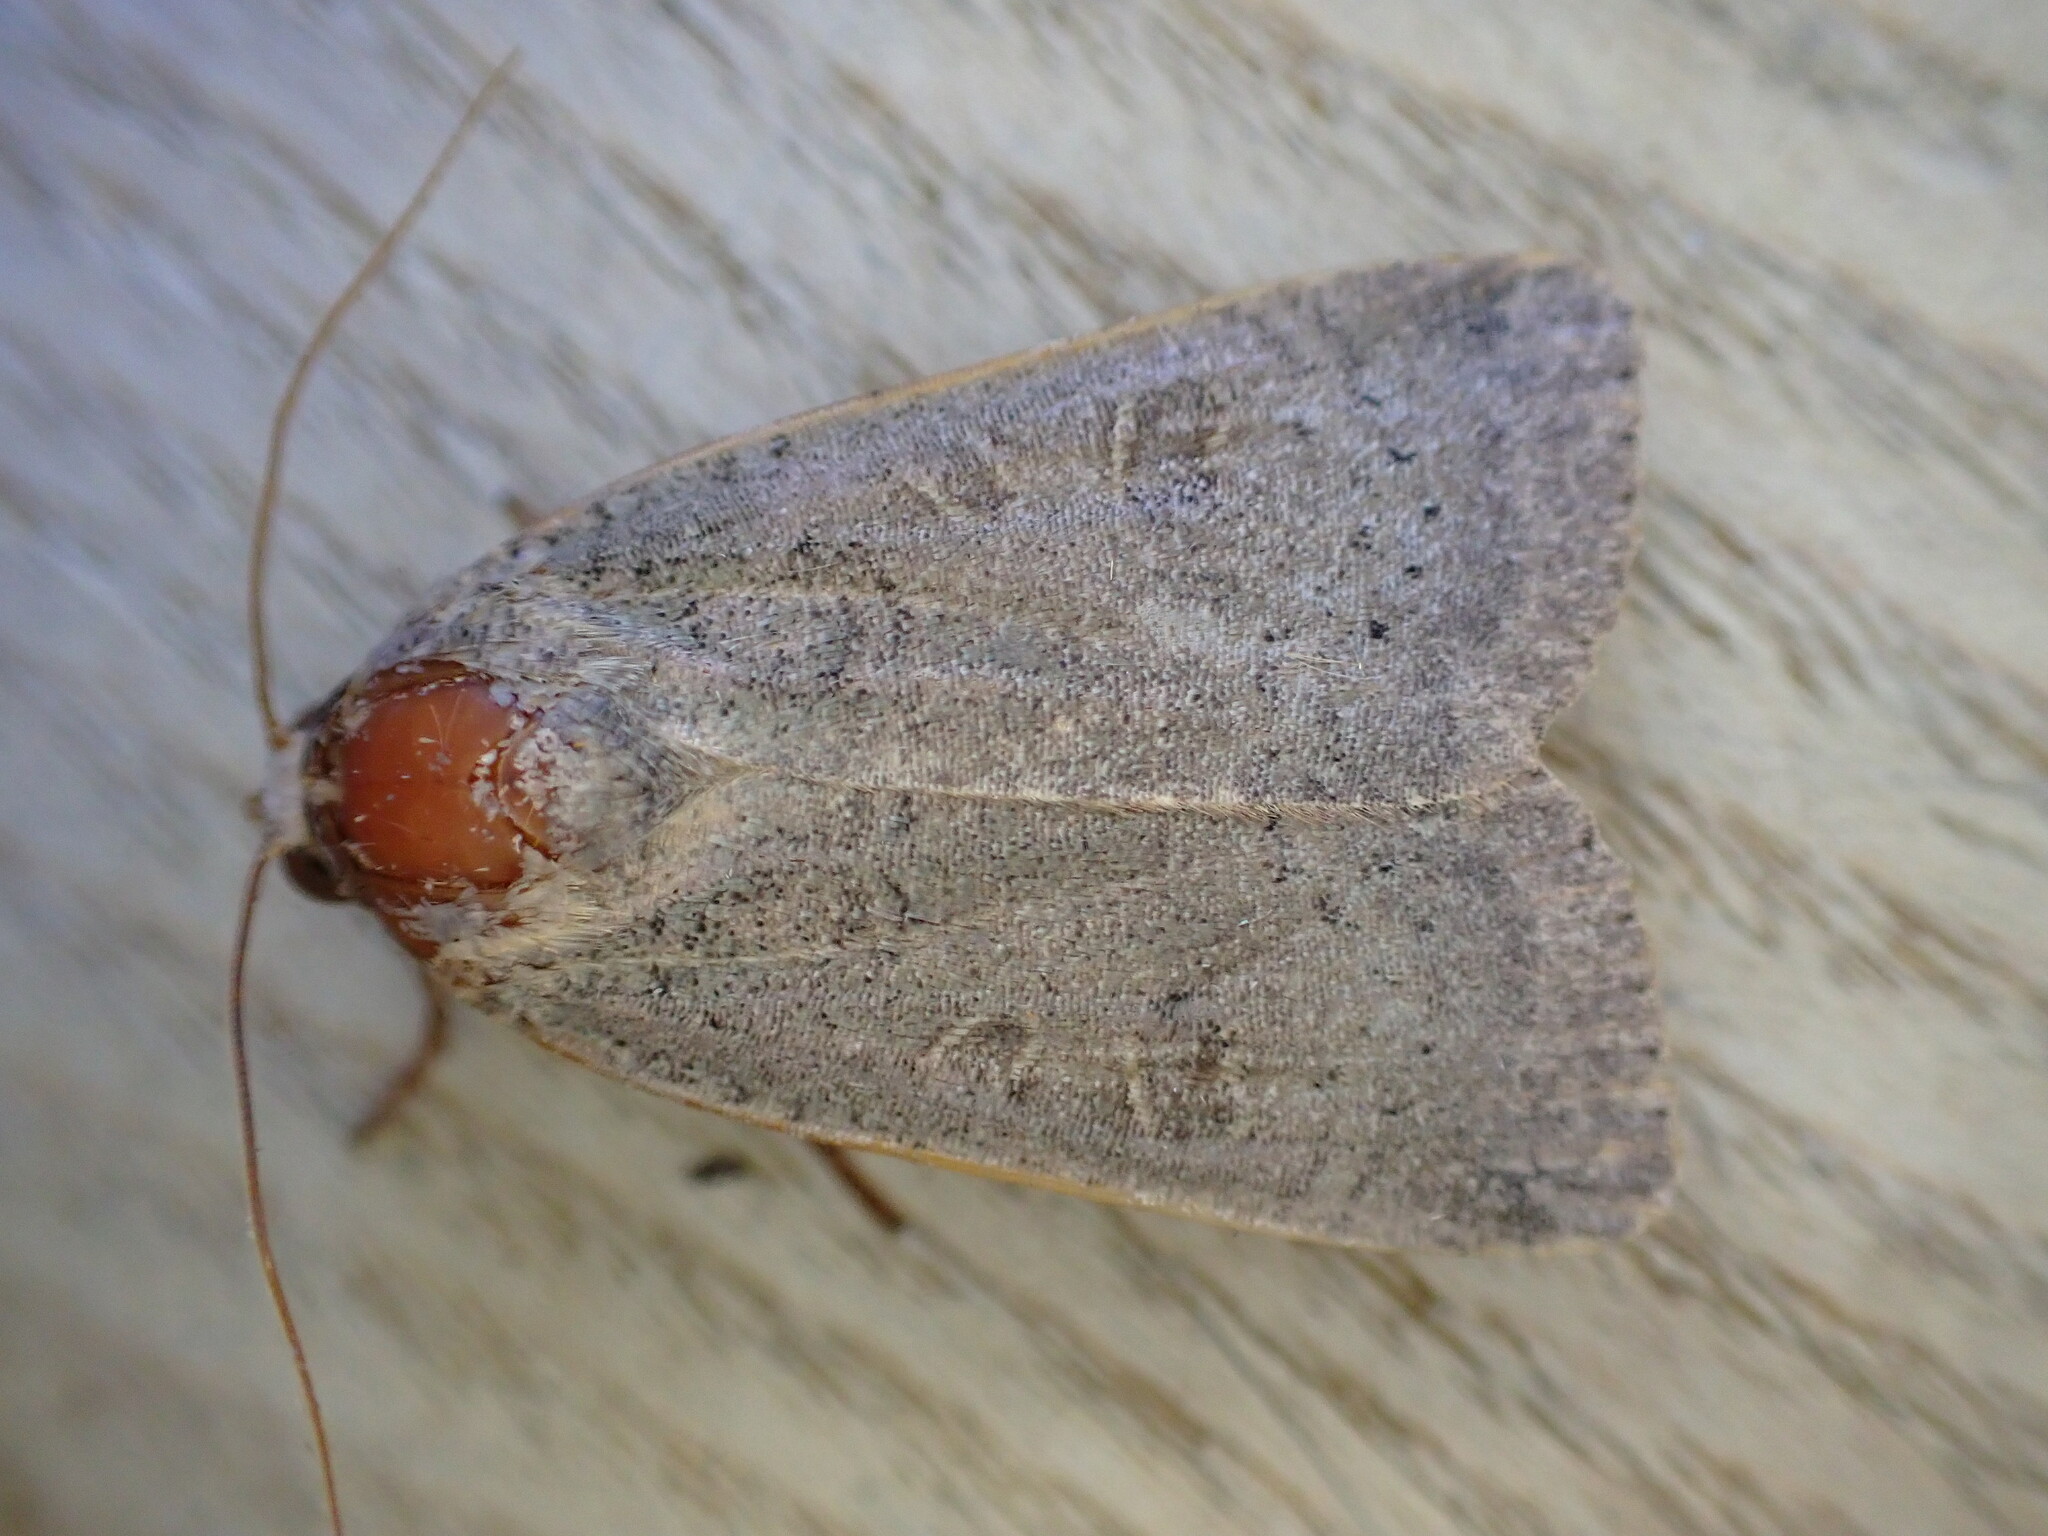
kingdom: Animalia
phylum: Arthropoda
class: Insecta
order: Lepidoptera
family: Noctuidae
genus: Noctua
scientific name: Noctua comes
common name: Lesser yellow underwing
